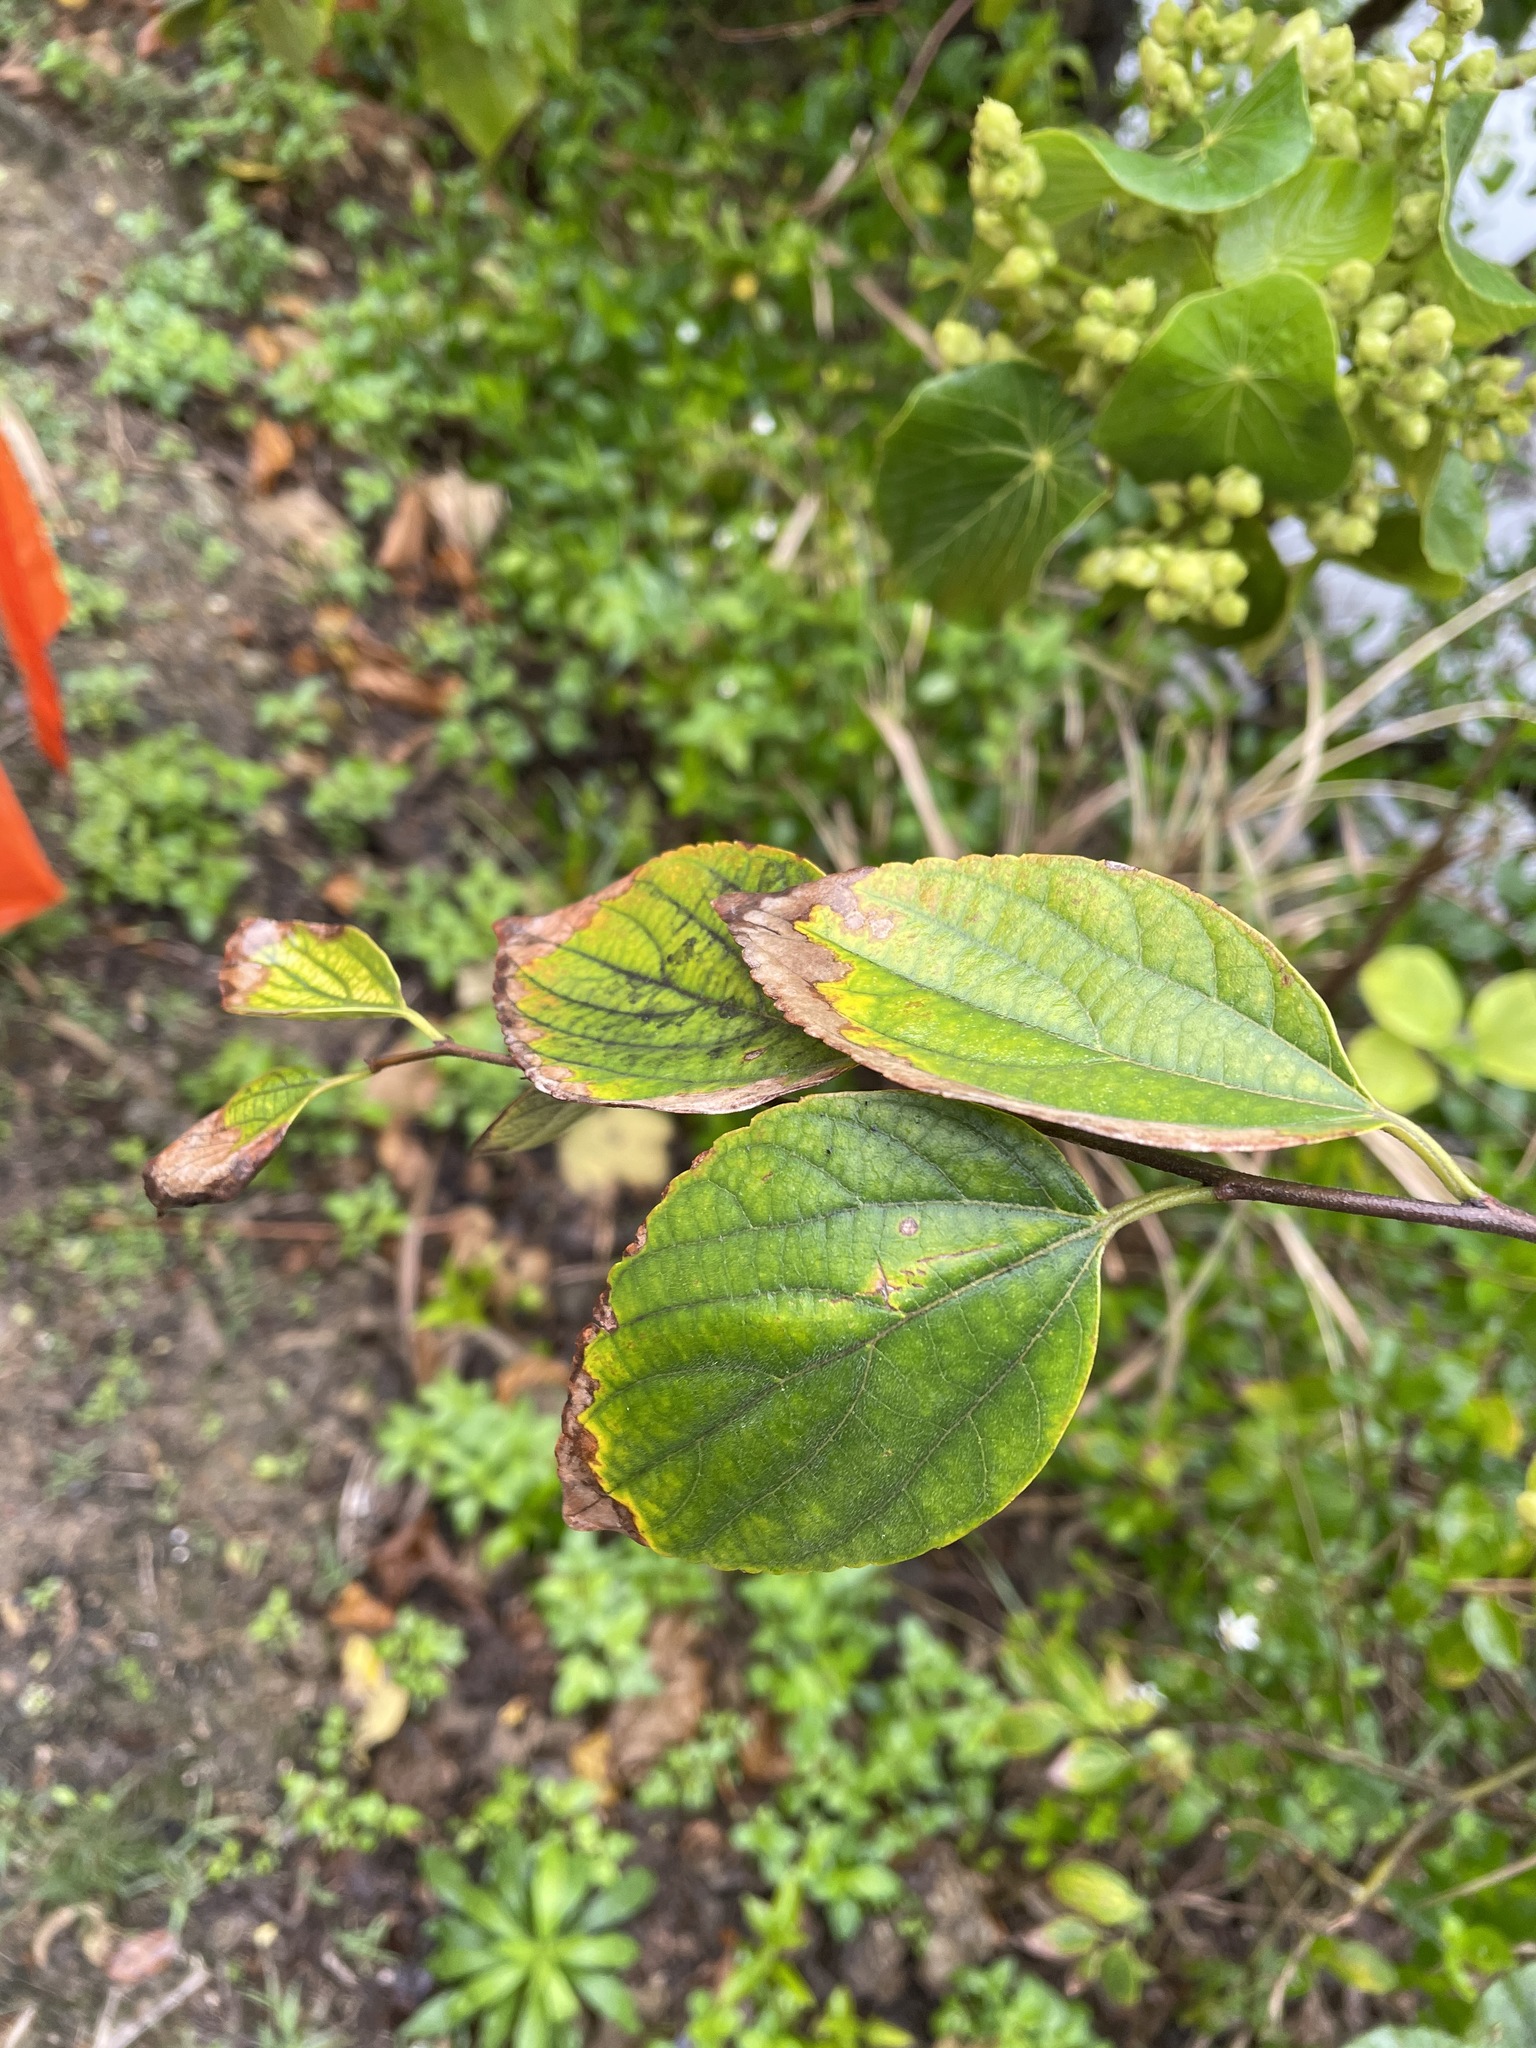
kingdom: Plantae
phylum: Tracheophyta
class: Magnoliopsida
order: Rosales
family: Cannabaceae
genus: Celtis
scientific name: Celtis sinensis
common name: Chinese hackberry
